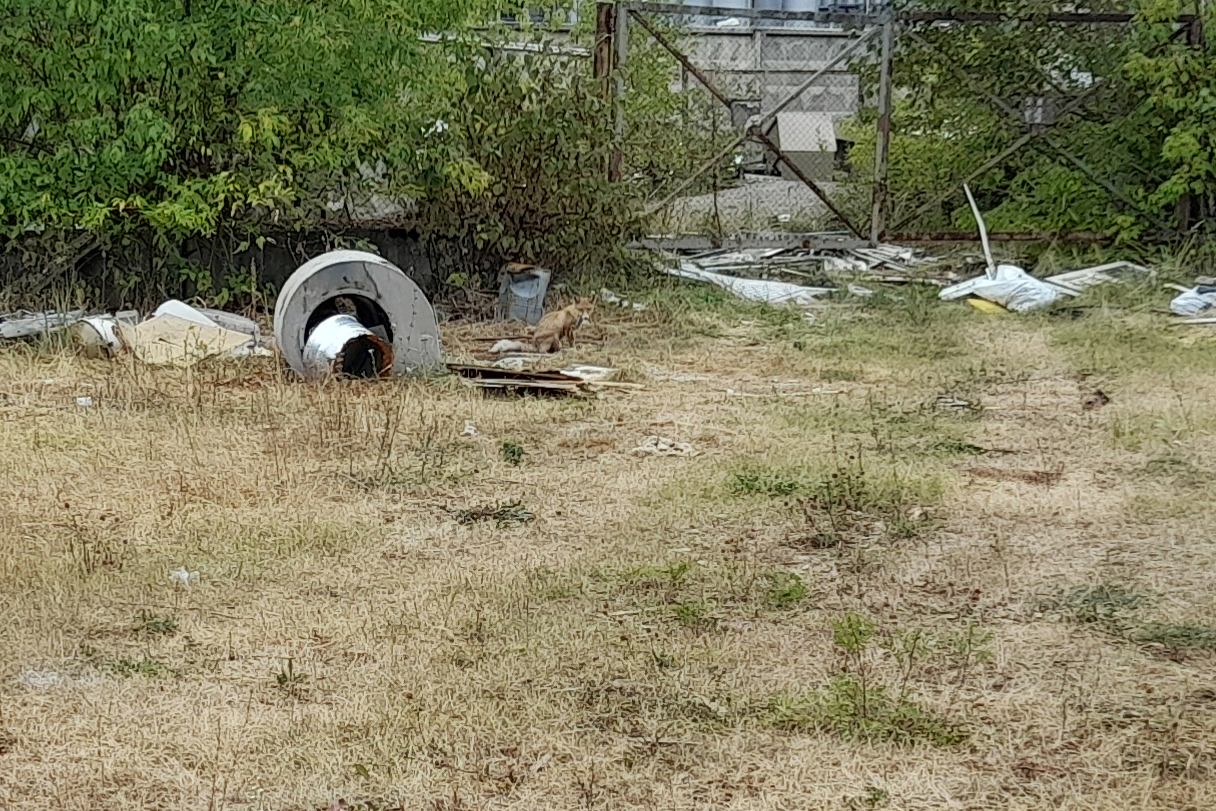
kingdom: Animalia
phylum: Chordata
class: Mammalia
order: Carnivora
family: Canidae
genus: Vulpes
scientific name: Vulpes vulpes
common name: Red fox
